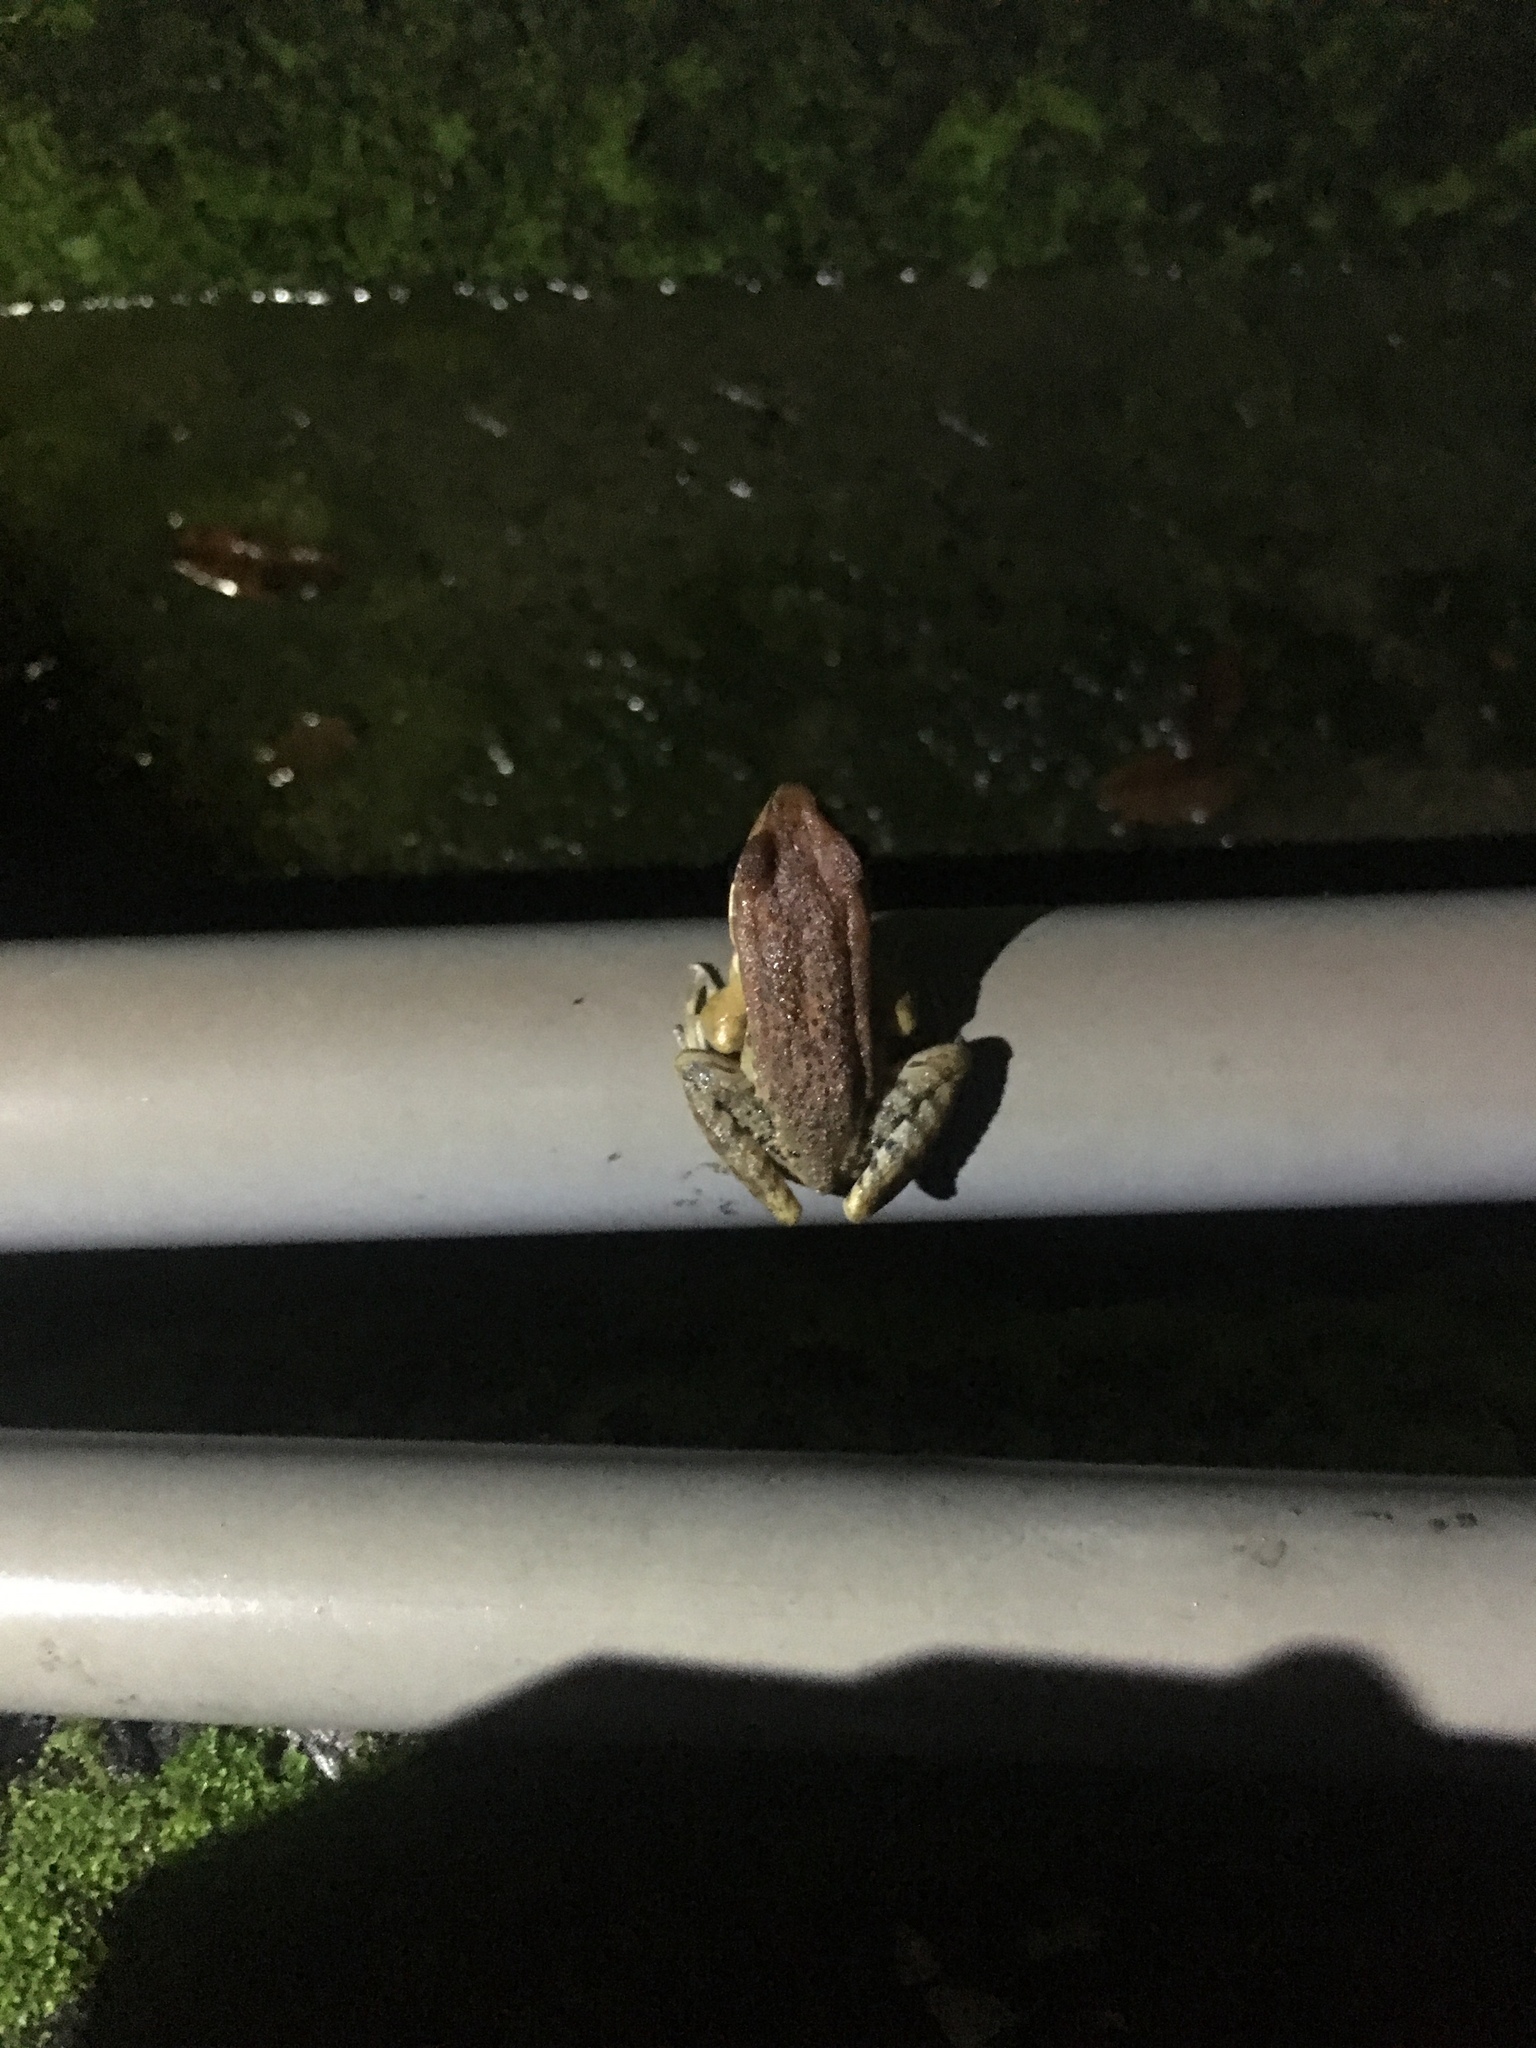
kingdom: Animalia
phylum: Chordata
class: Amphibia
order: Anura
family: Ranidae
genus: Hylarana
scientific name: Hylarana latouchii
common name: Broad-folded frog
